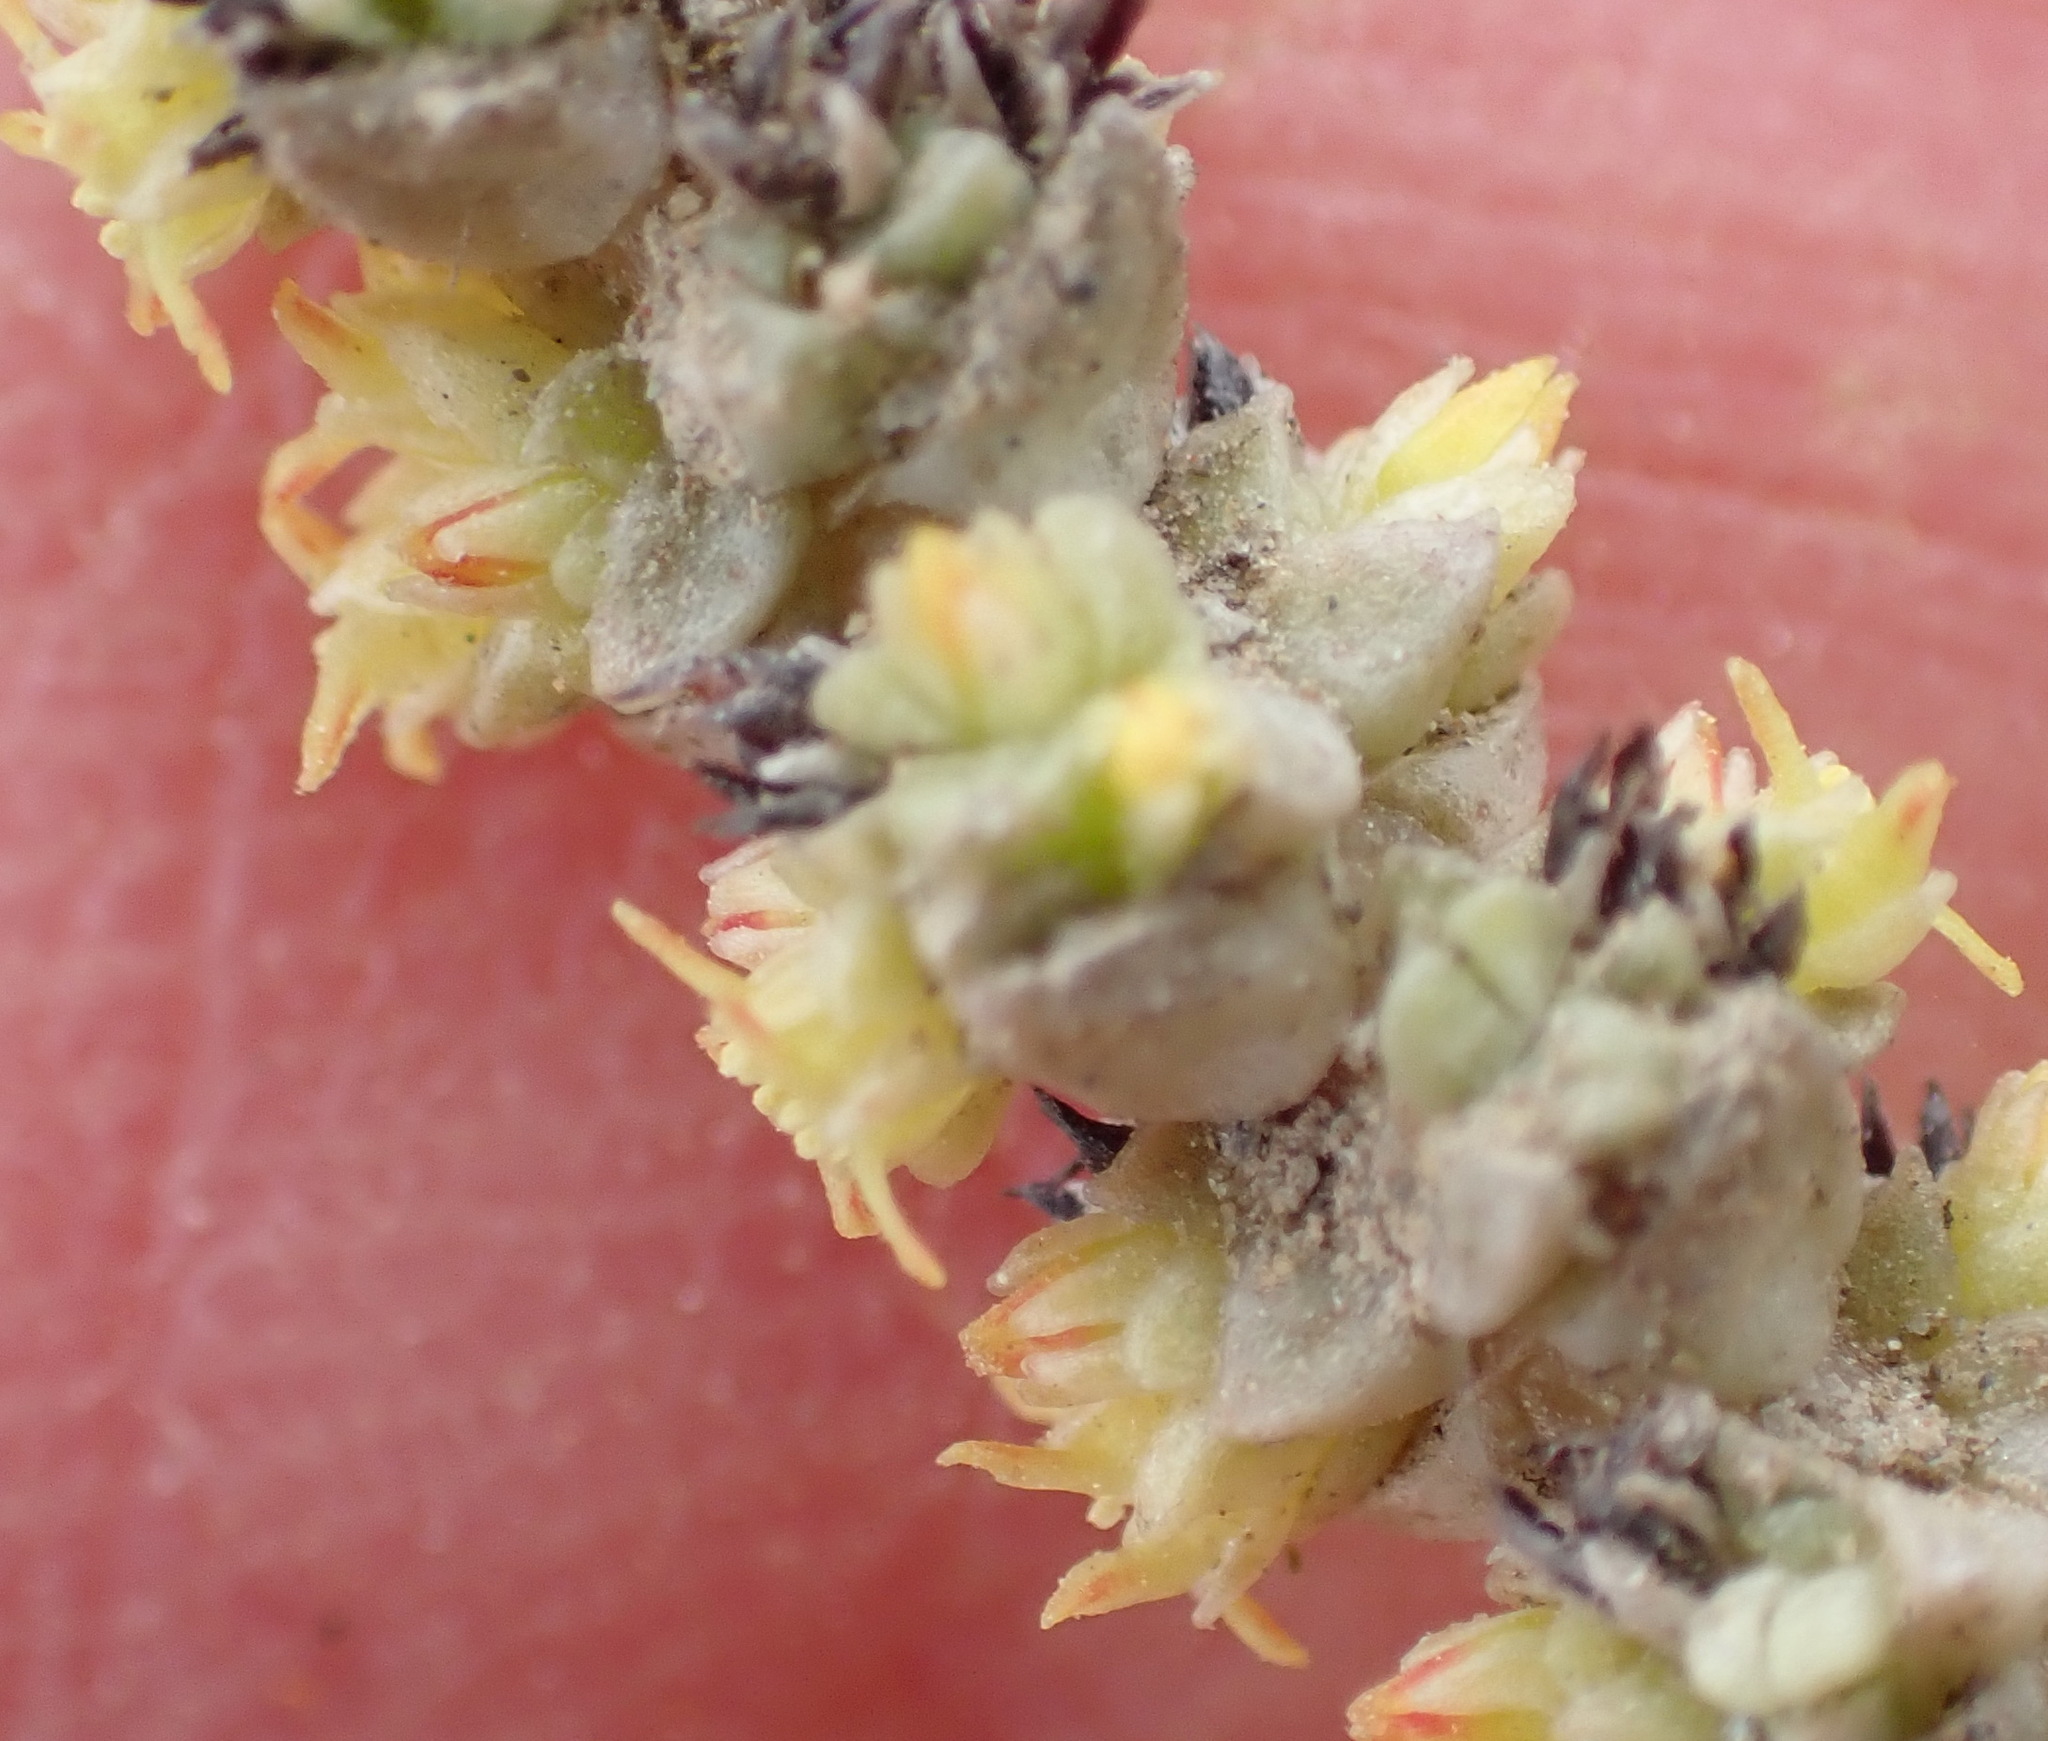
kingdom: Plantae
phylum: Tracheophyta
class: Magnoliopsida
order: Saxifragales
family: Crassulaceae
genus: Crassula
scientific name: Crassula muscosa
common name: Toy-cypress
